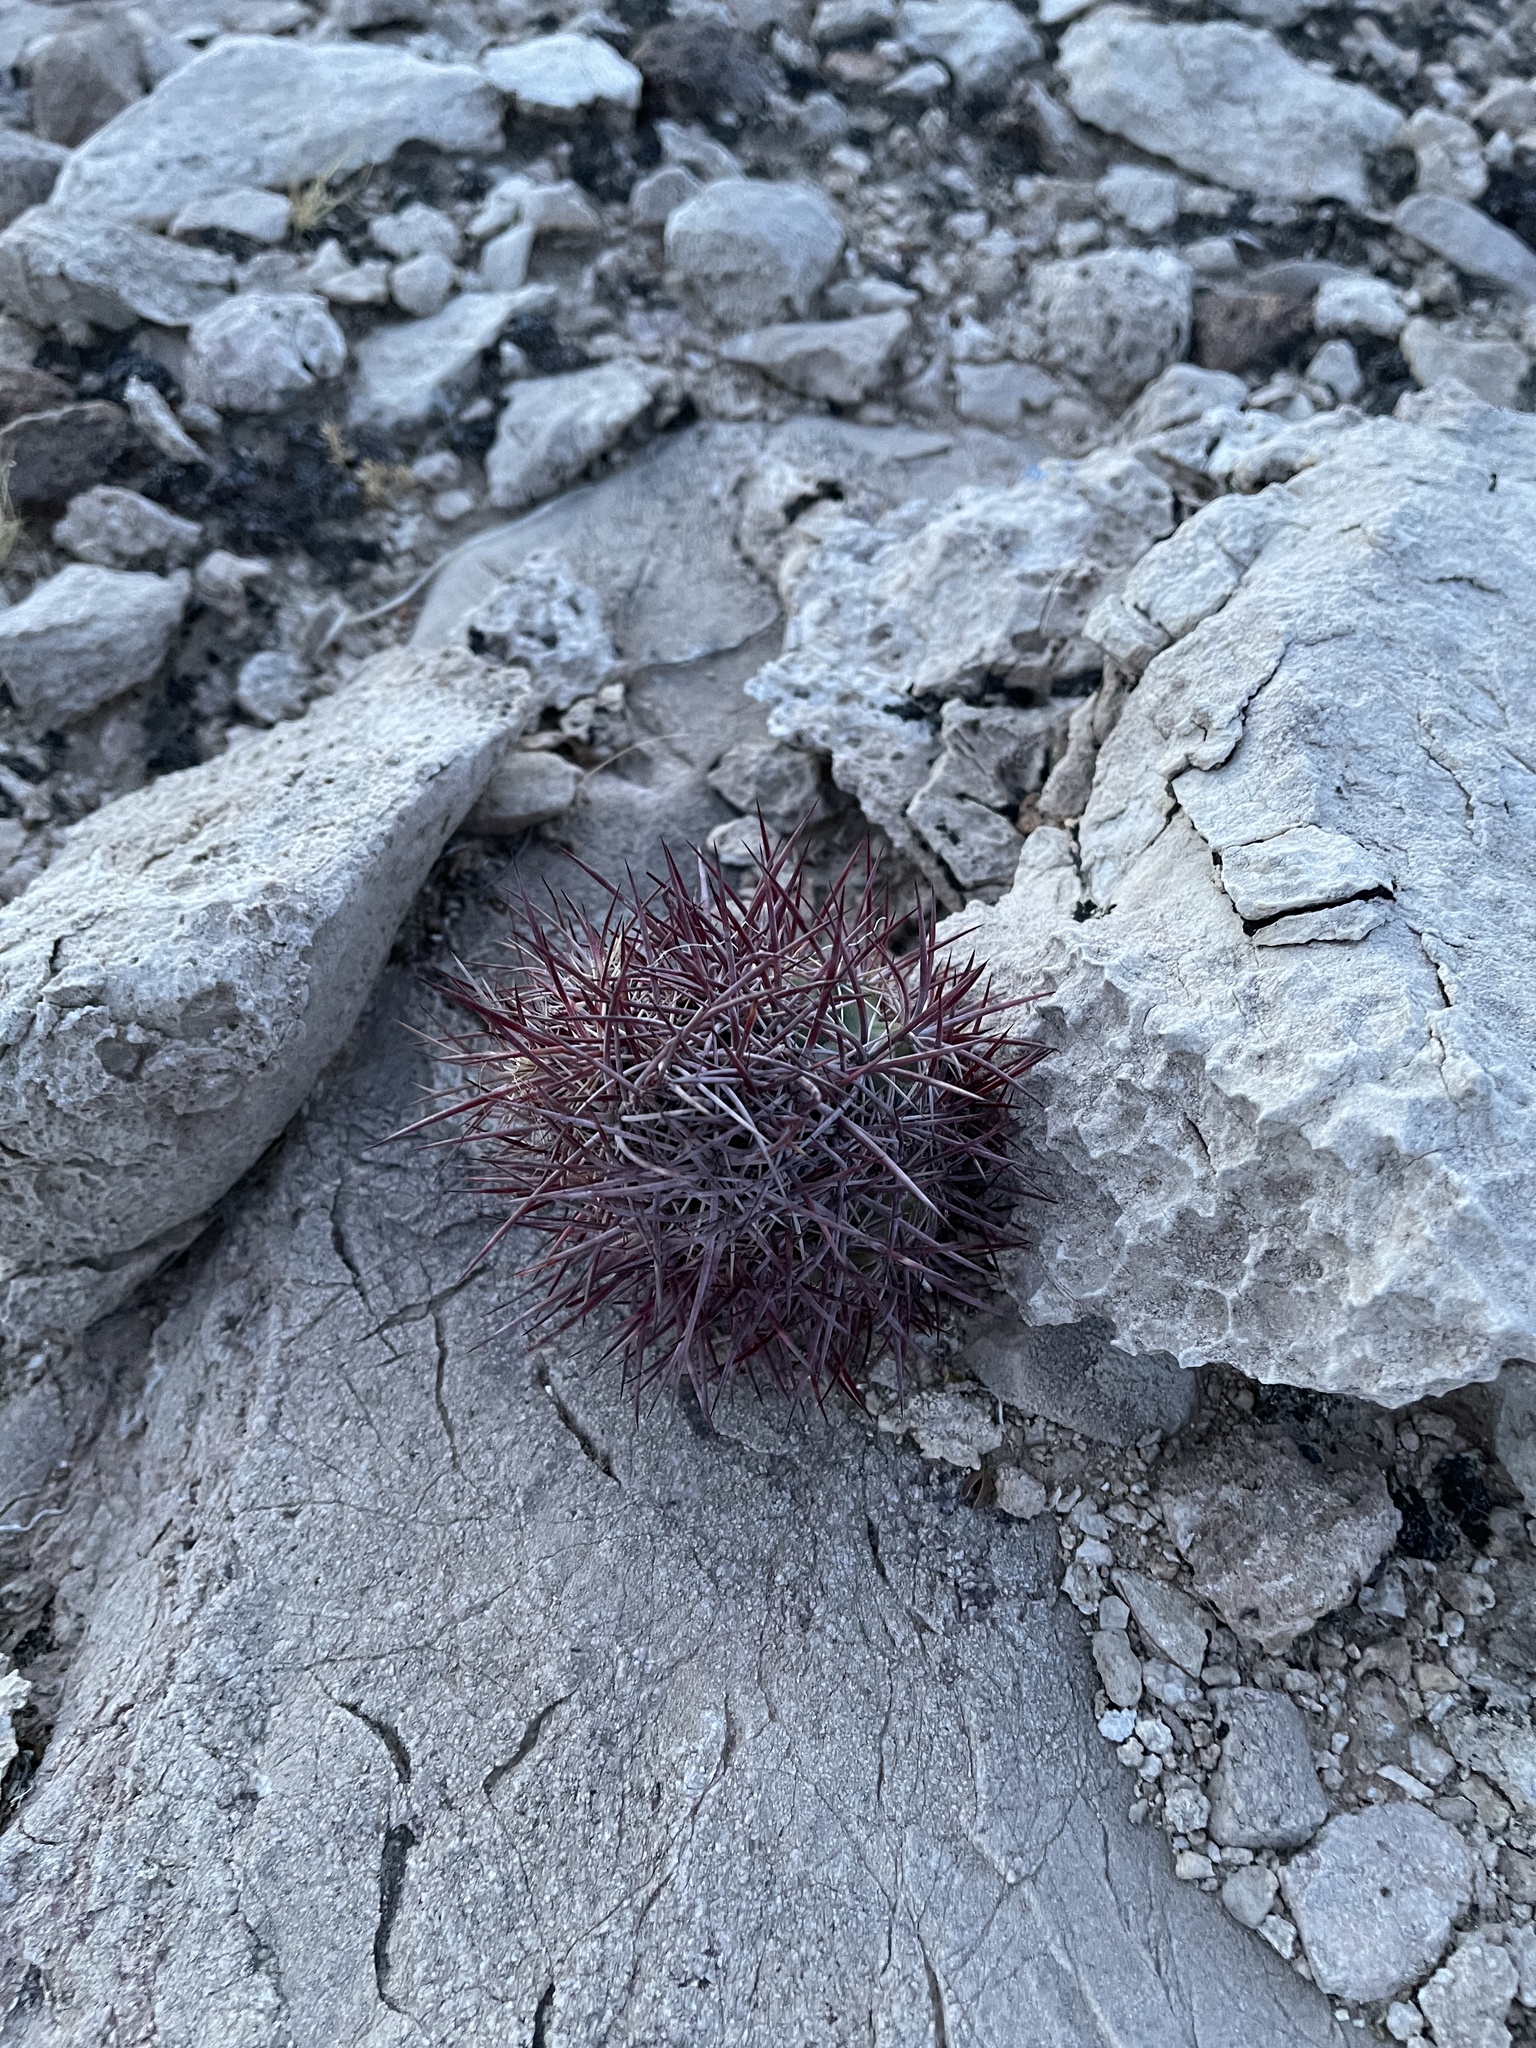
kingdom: Plantae
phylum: Tracheophyta
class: Magnoliopsida
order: Caryophyllales
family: Cactaceae
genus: Sclerocactus
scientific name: Sclerocactus johnsonii
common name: Eight-spine fishhook cactus
